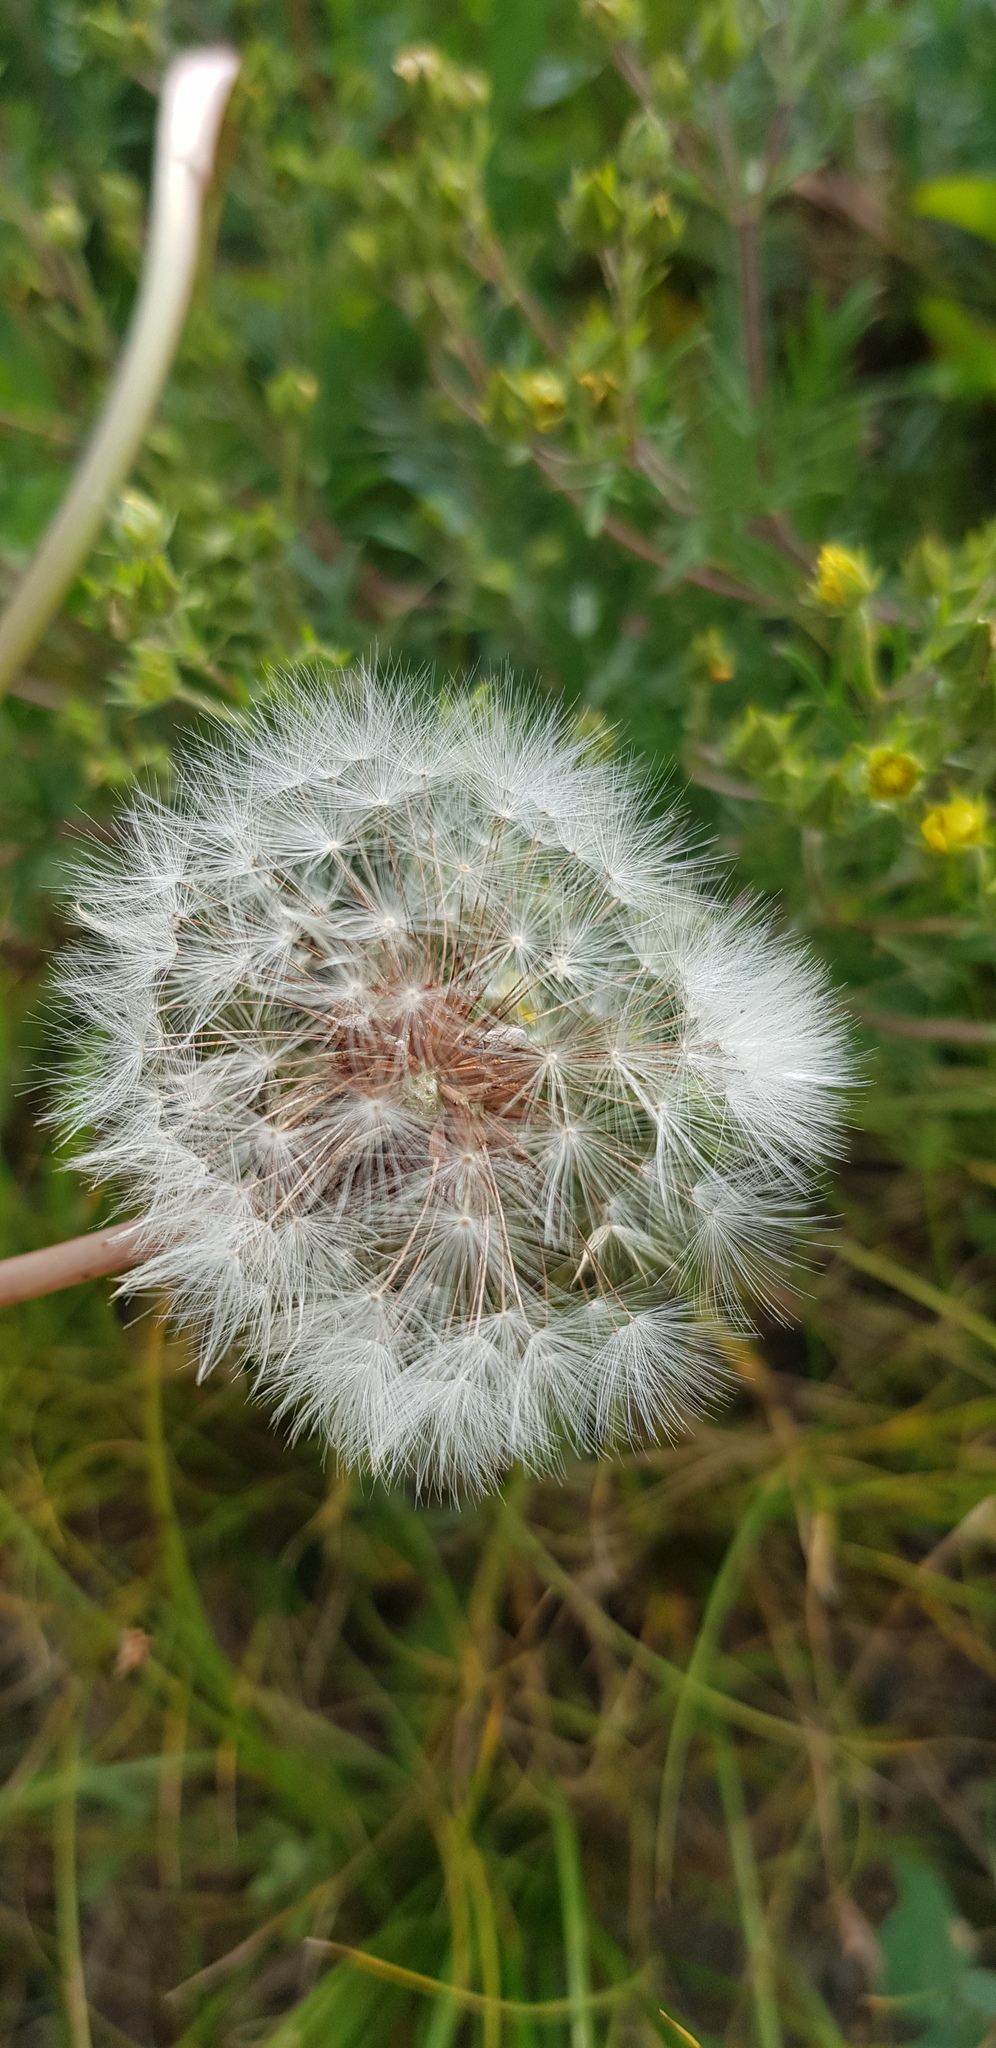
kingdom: Plantae
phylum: Tracheophyta
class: Magnoliopsida
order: Asterales
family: Asteraceae
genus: Taraxacum
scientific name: Taraxacum officinale
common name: Common dandelion
